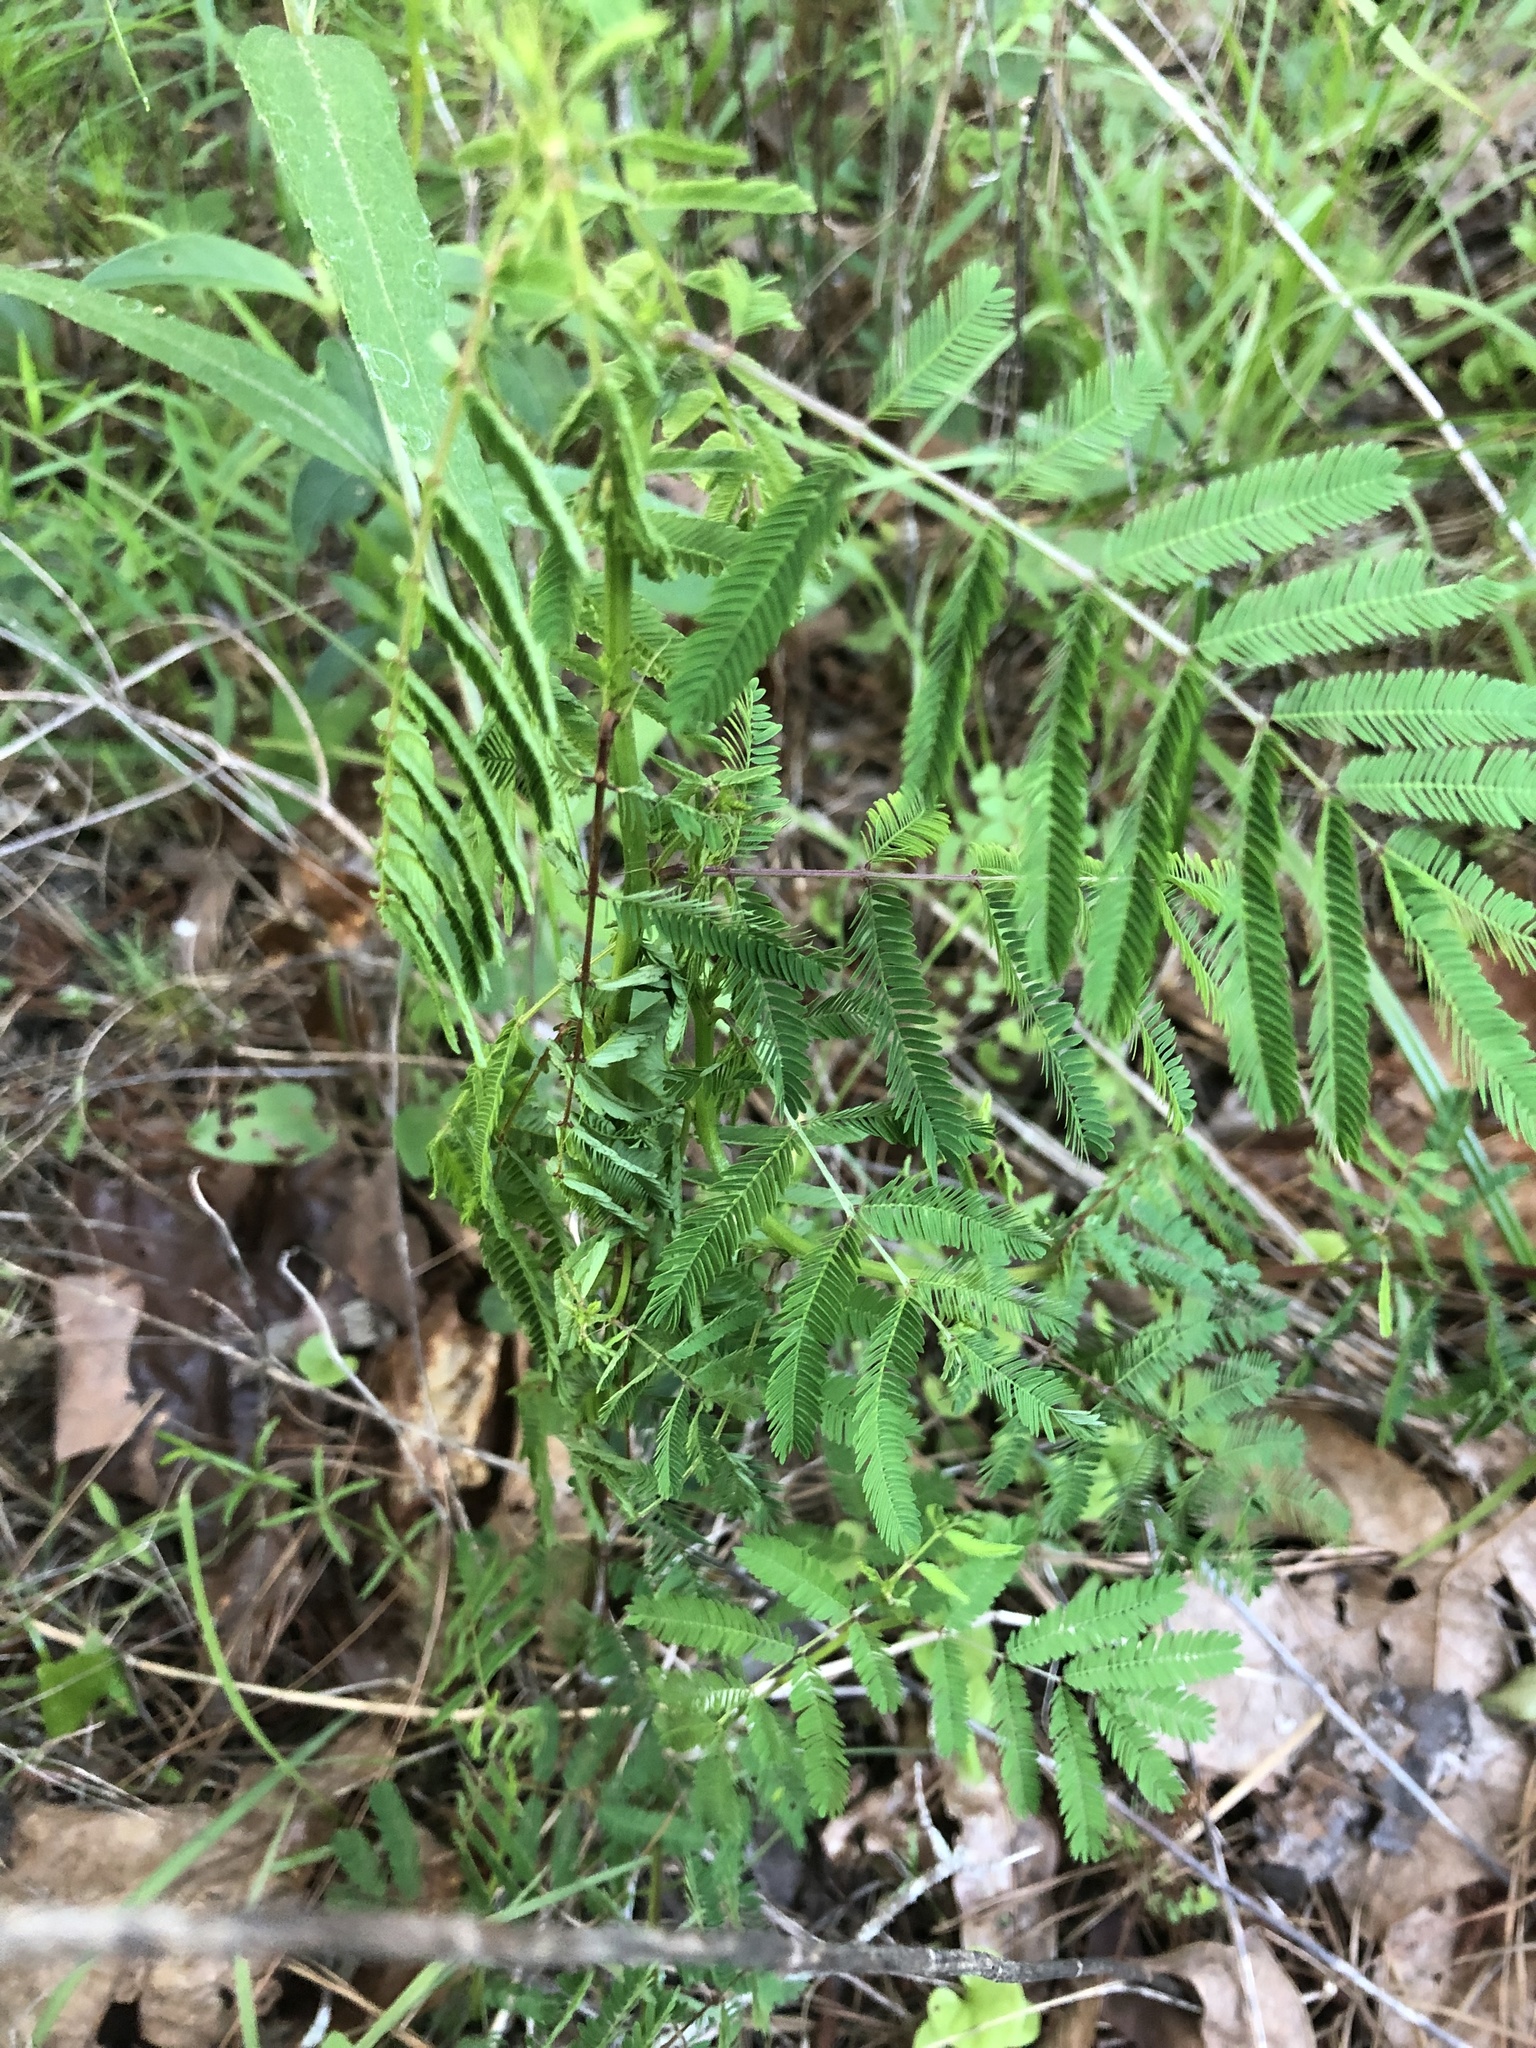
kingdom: Plantae
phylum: Tracheophyta
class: Magnoliopsida
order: Fabales
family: Fabaceae
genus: Desmanthus
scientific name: Desmanthus illinoensis
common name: Illinois bundle-flower
